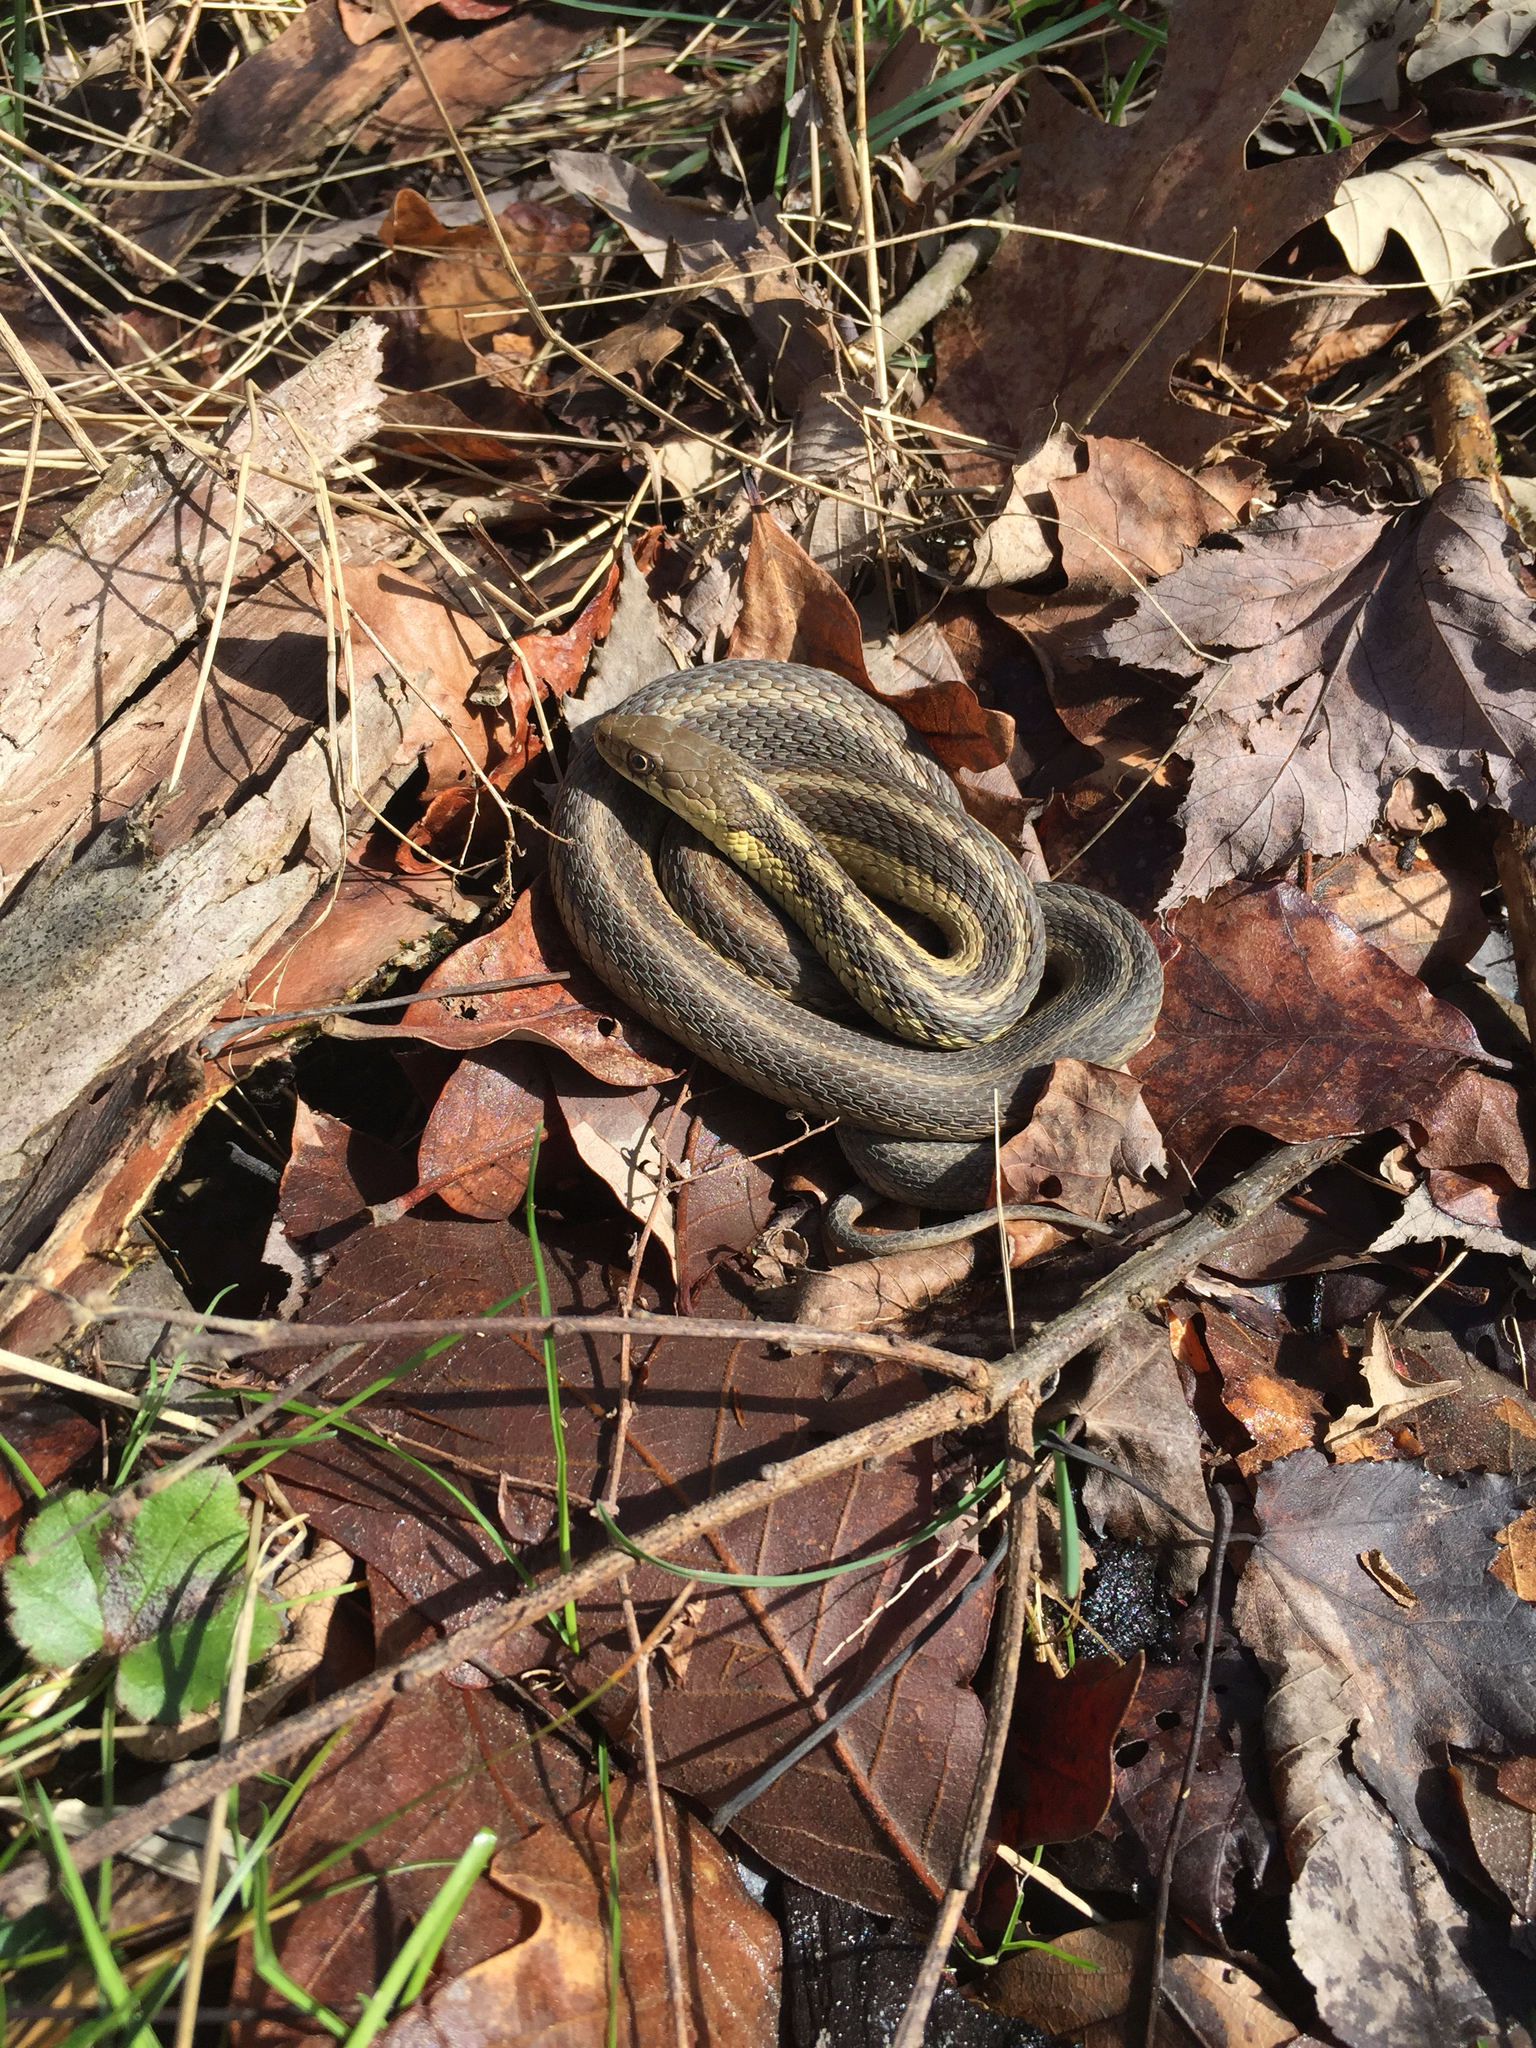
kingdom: Animalia
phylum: Chordata
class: Squamata
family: Colubridae
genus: Thamnophis
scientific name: Thamnophis sirtalis
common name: Common garter snake
